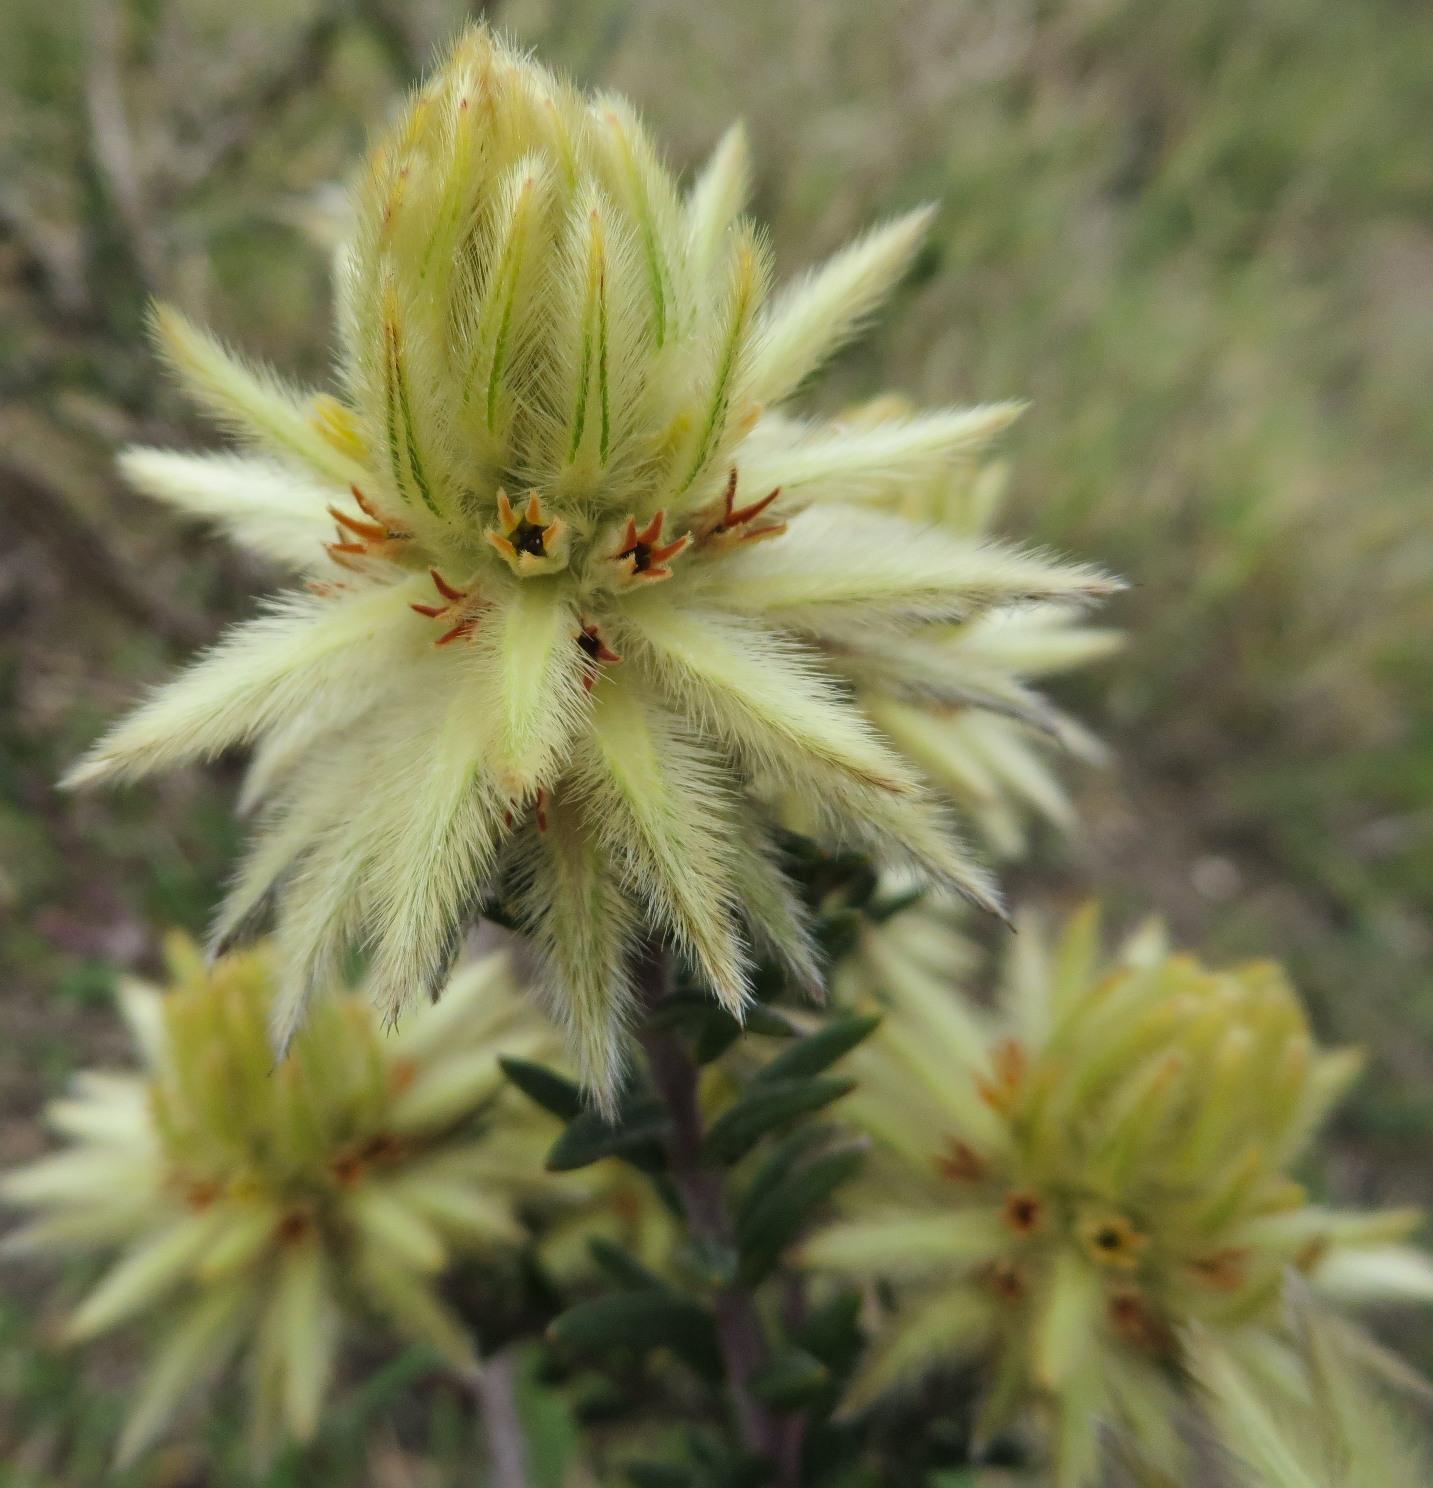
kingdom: Plantae
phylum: Tracheophyta
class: Magnoliopsida
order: Rosales
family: Rhamnaceae
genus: Phylica
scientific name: Phylica plumosa
